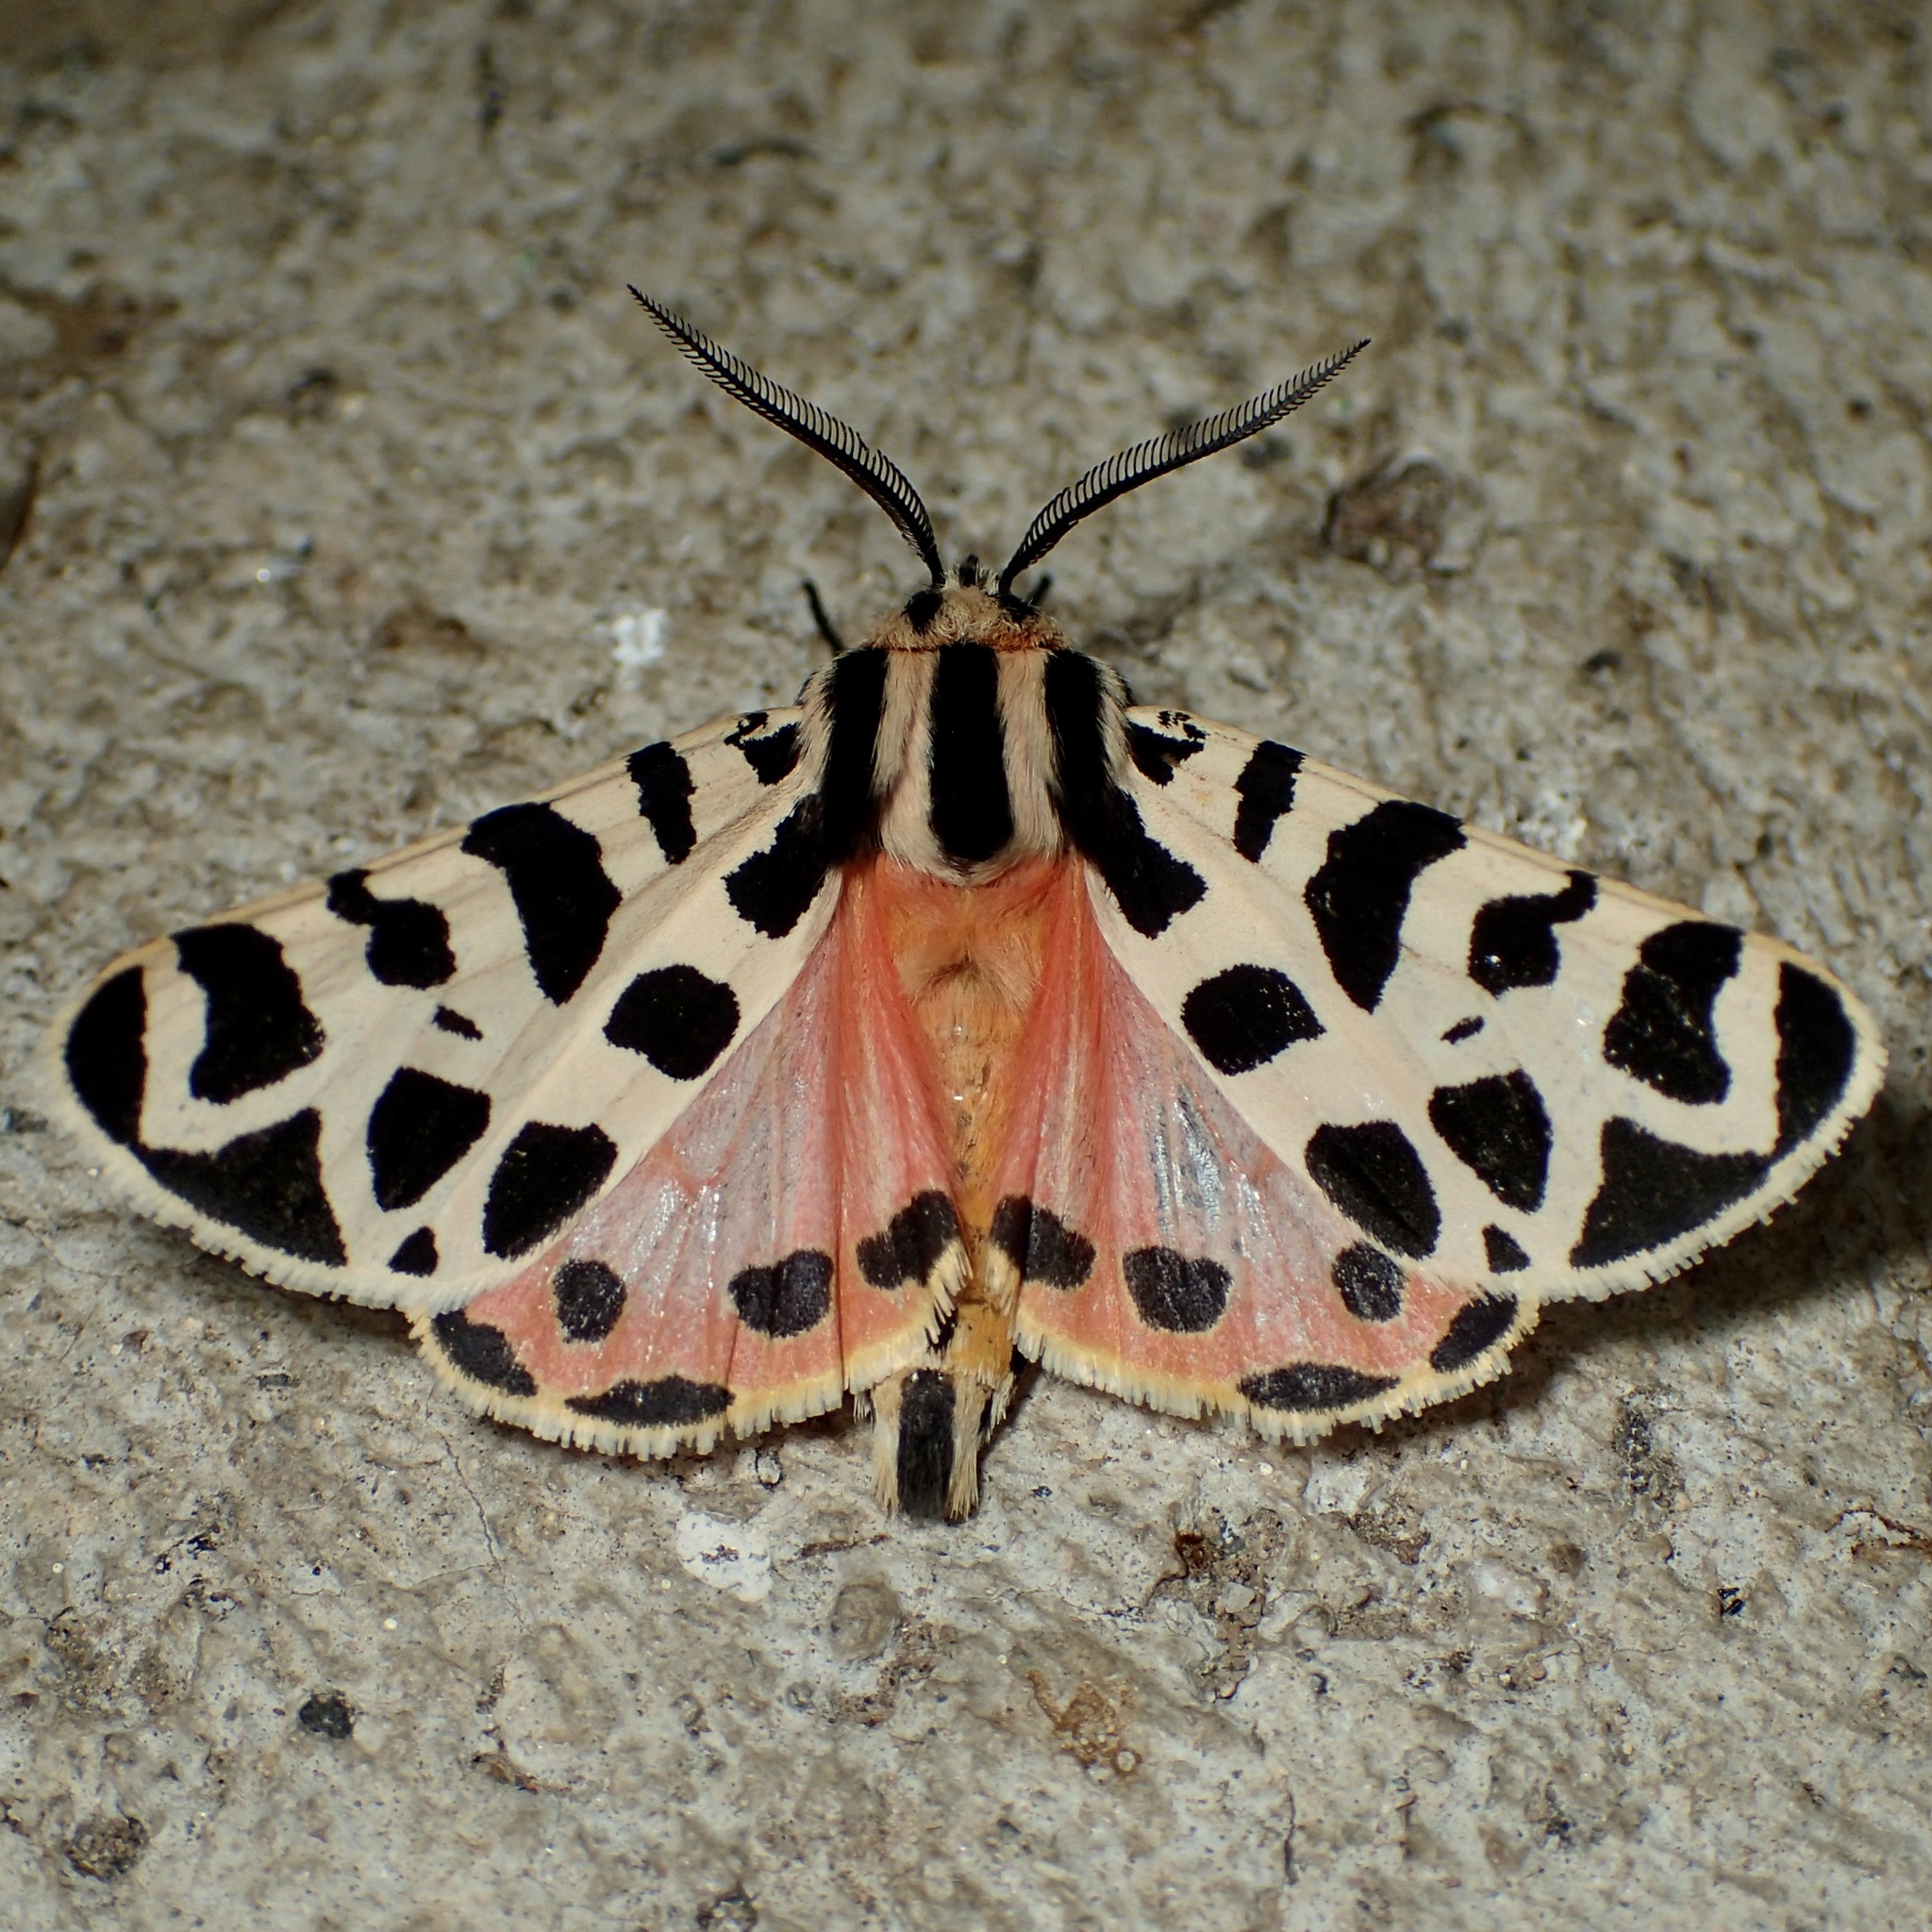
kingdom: Animalia
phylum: Arthropoda
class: Insecta
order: Lepidoptera
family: Erebidae
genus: Apantesis
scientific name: Apantesis incorrupta
